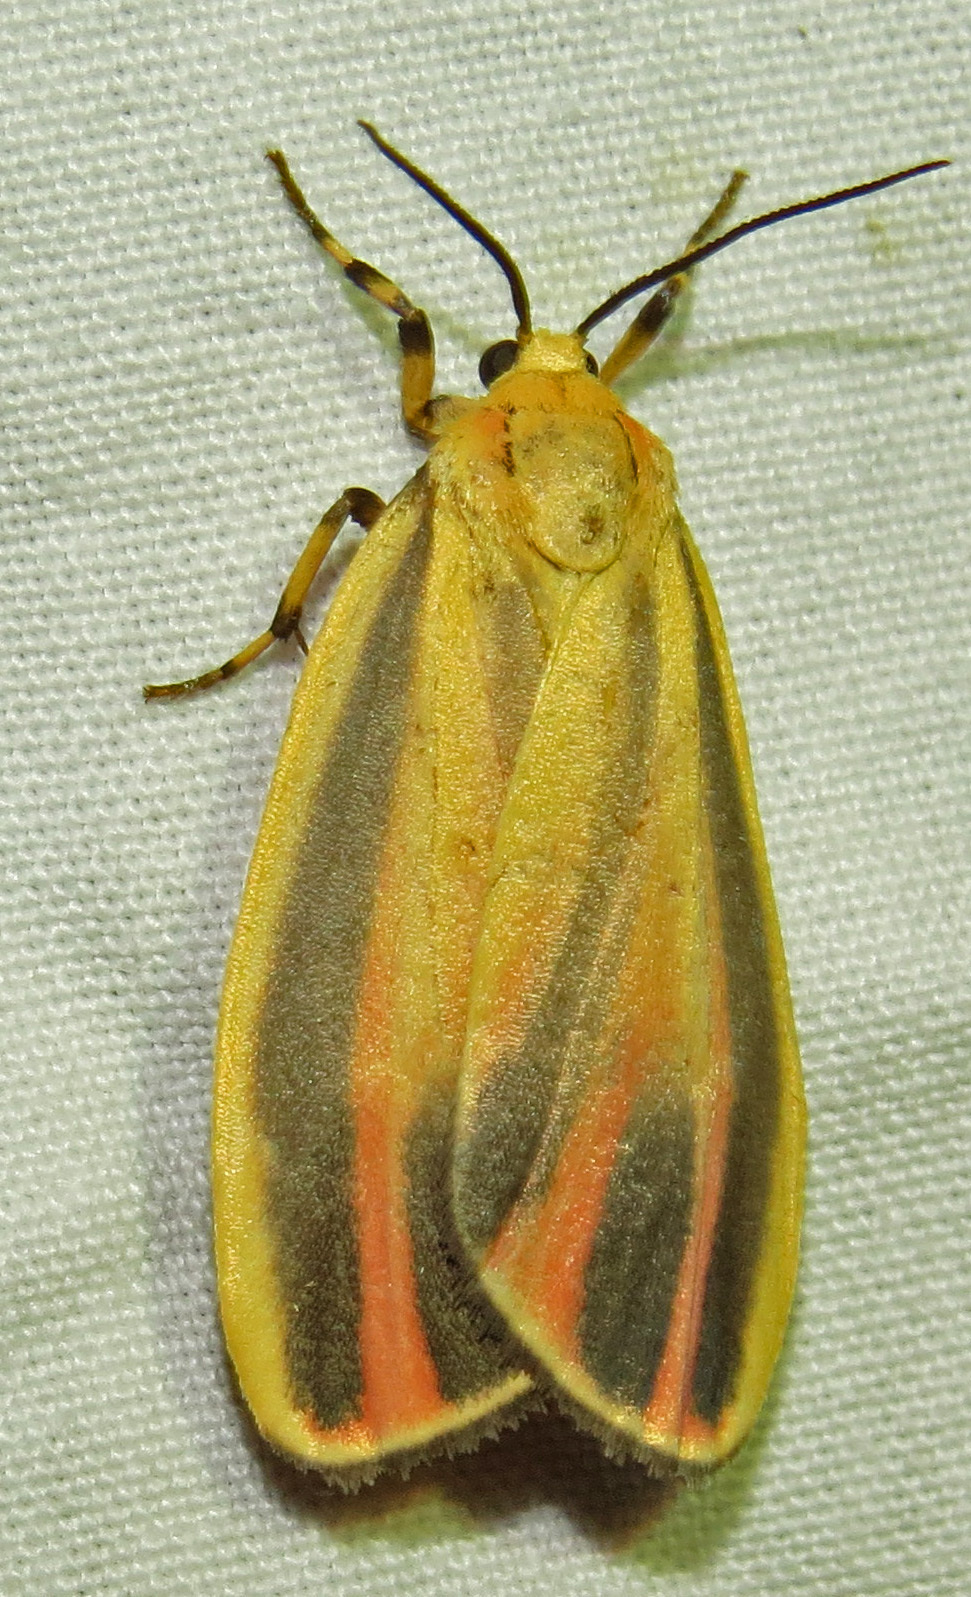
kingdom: Animalia
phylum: Arthropoda
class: Insecta
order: Lepidoptera
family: Erebidae
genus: Hypoprepia
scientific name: Hypoprepia fucosa
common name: Painted lichen moth
